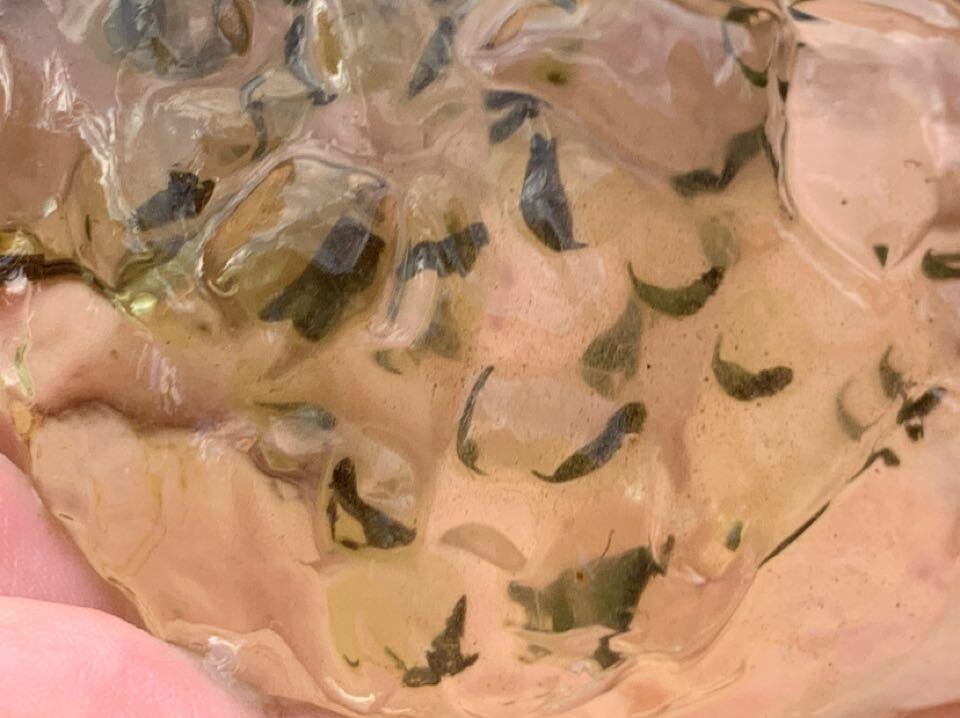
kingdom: Animalia
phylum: Chordata
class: Amphibia
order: Caudata
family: Ambystomatidae
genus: Ambystoma
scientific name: Ambystoma maculatum
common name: Spotted salamander
